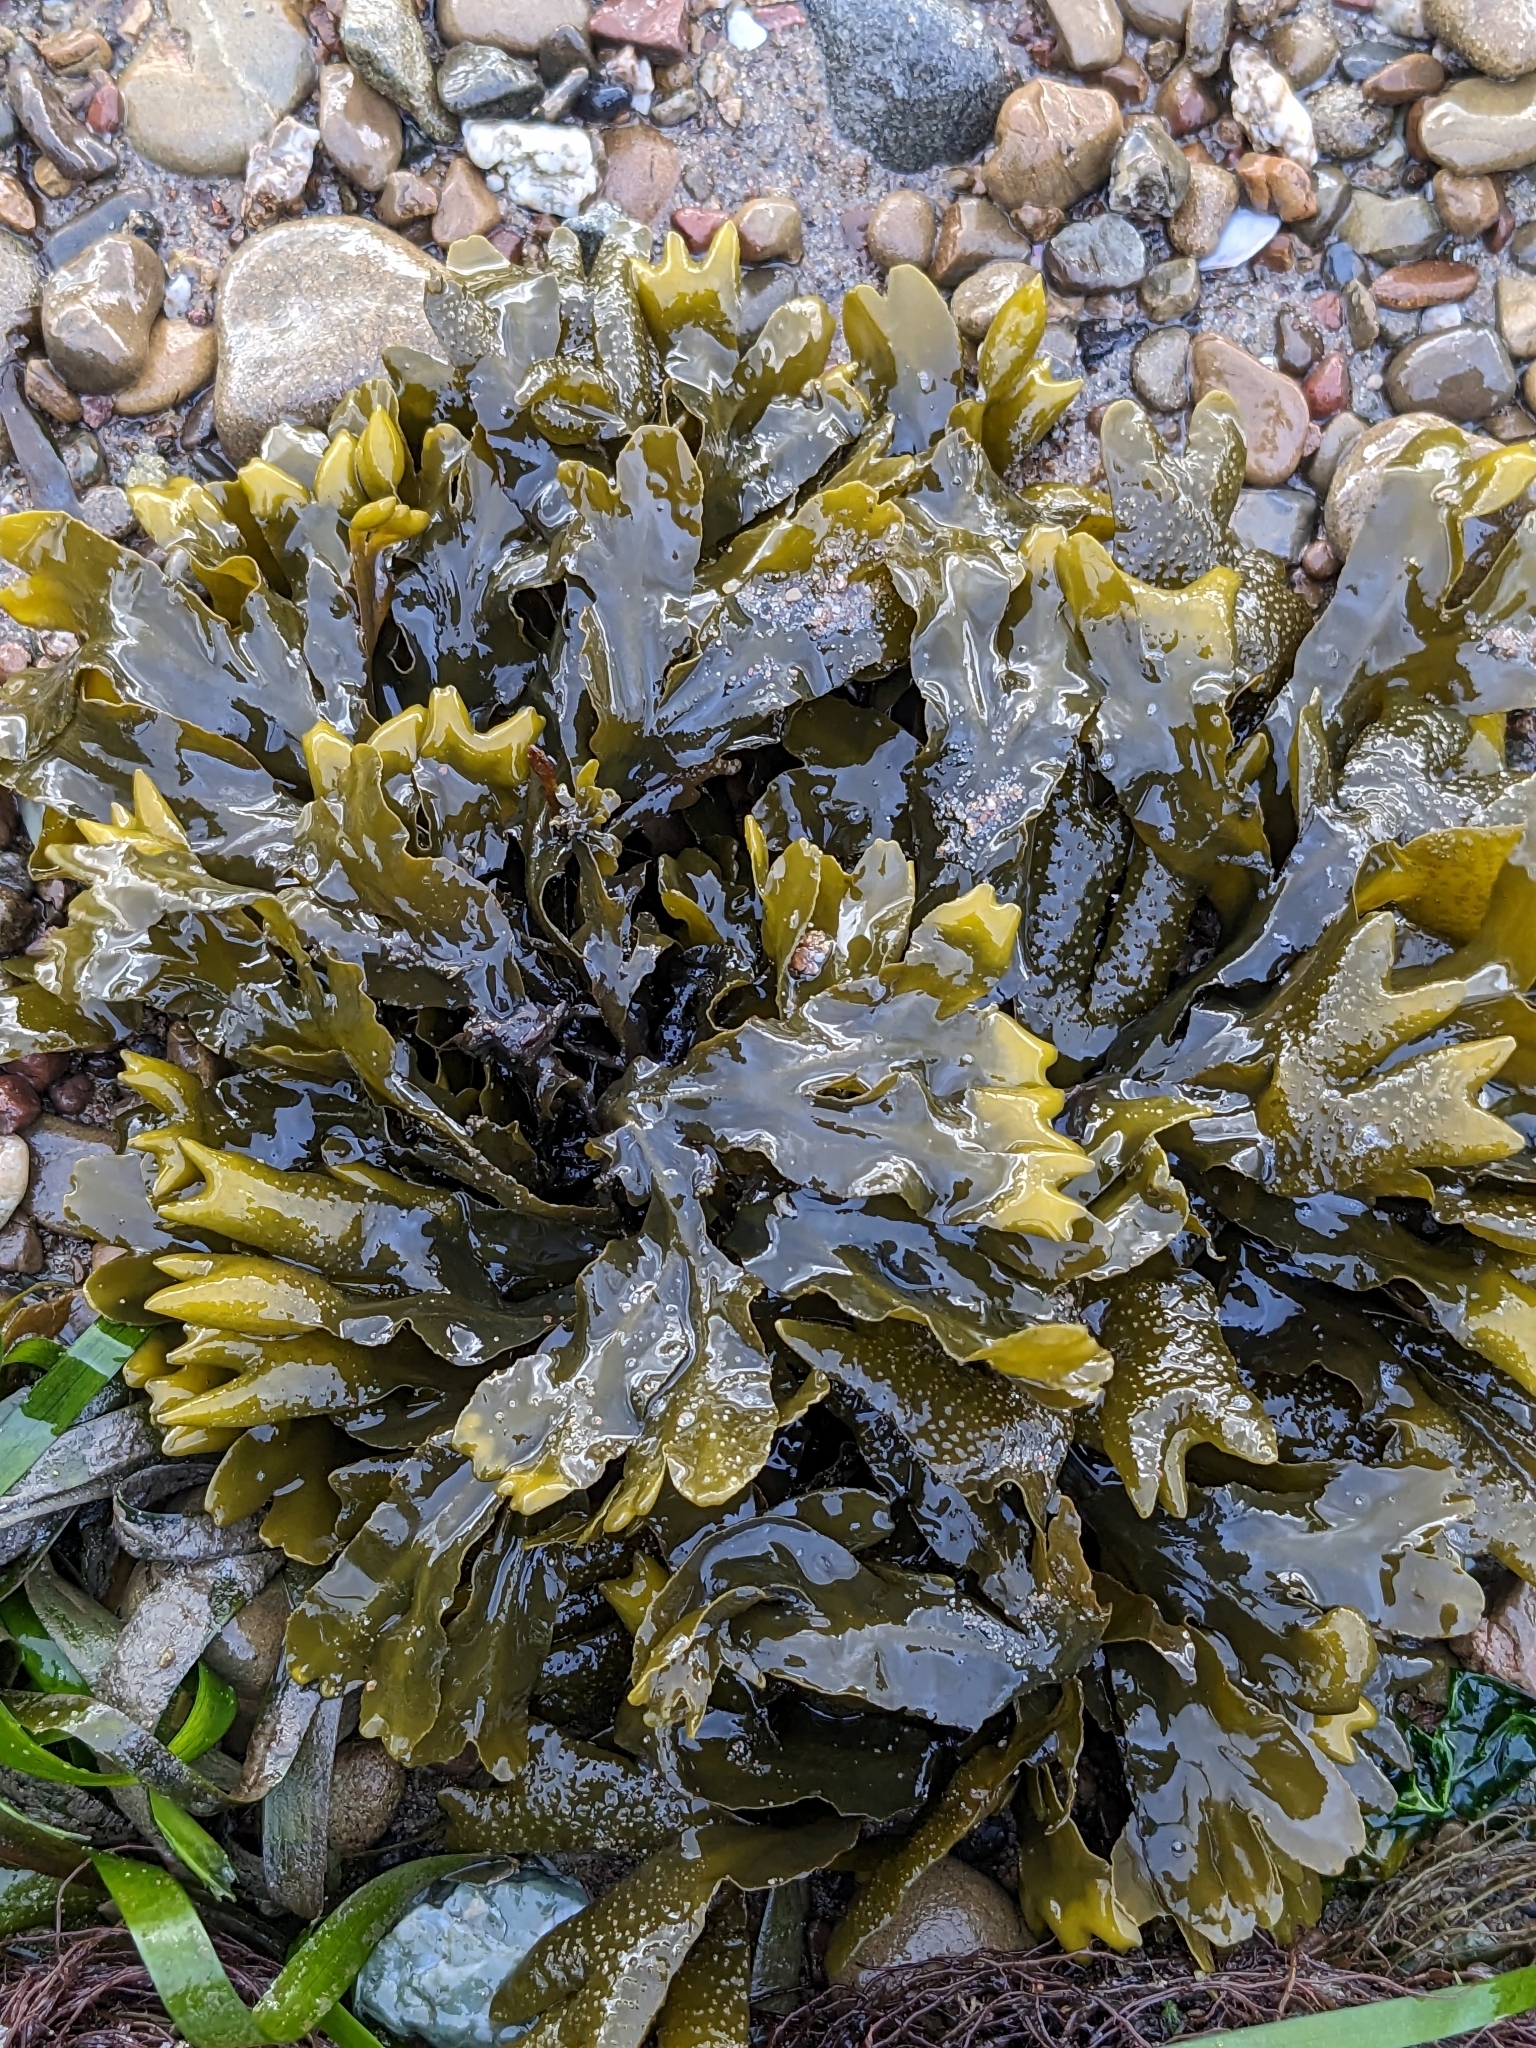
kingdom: Chromista
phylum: Ochrophyta
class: Phaeophyceae
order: Fucales
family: Fucaceae
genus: Fucus
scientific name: Fucus distichus
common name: Rockweed
